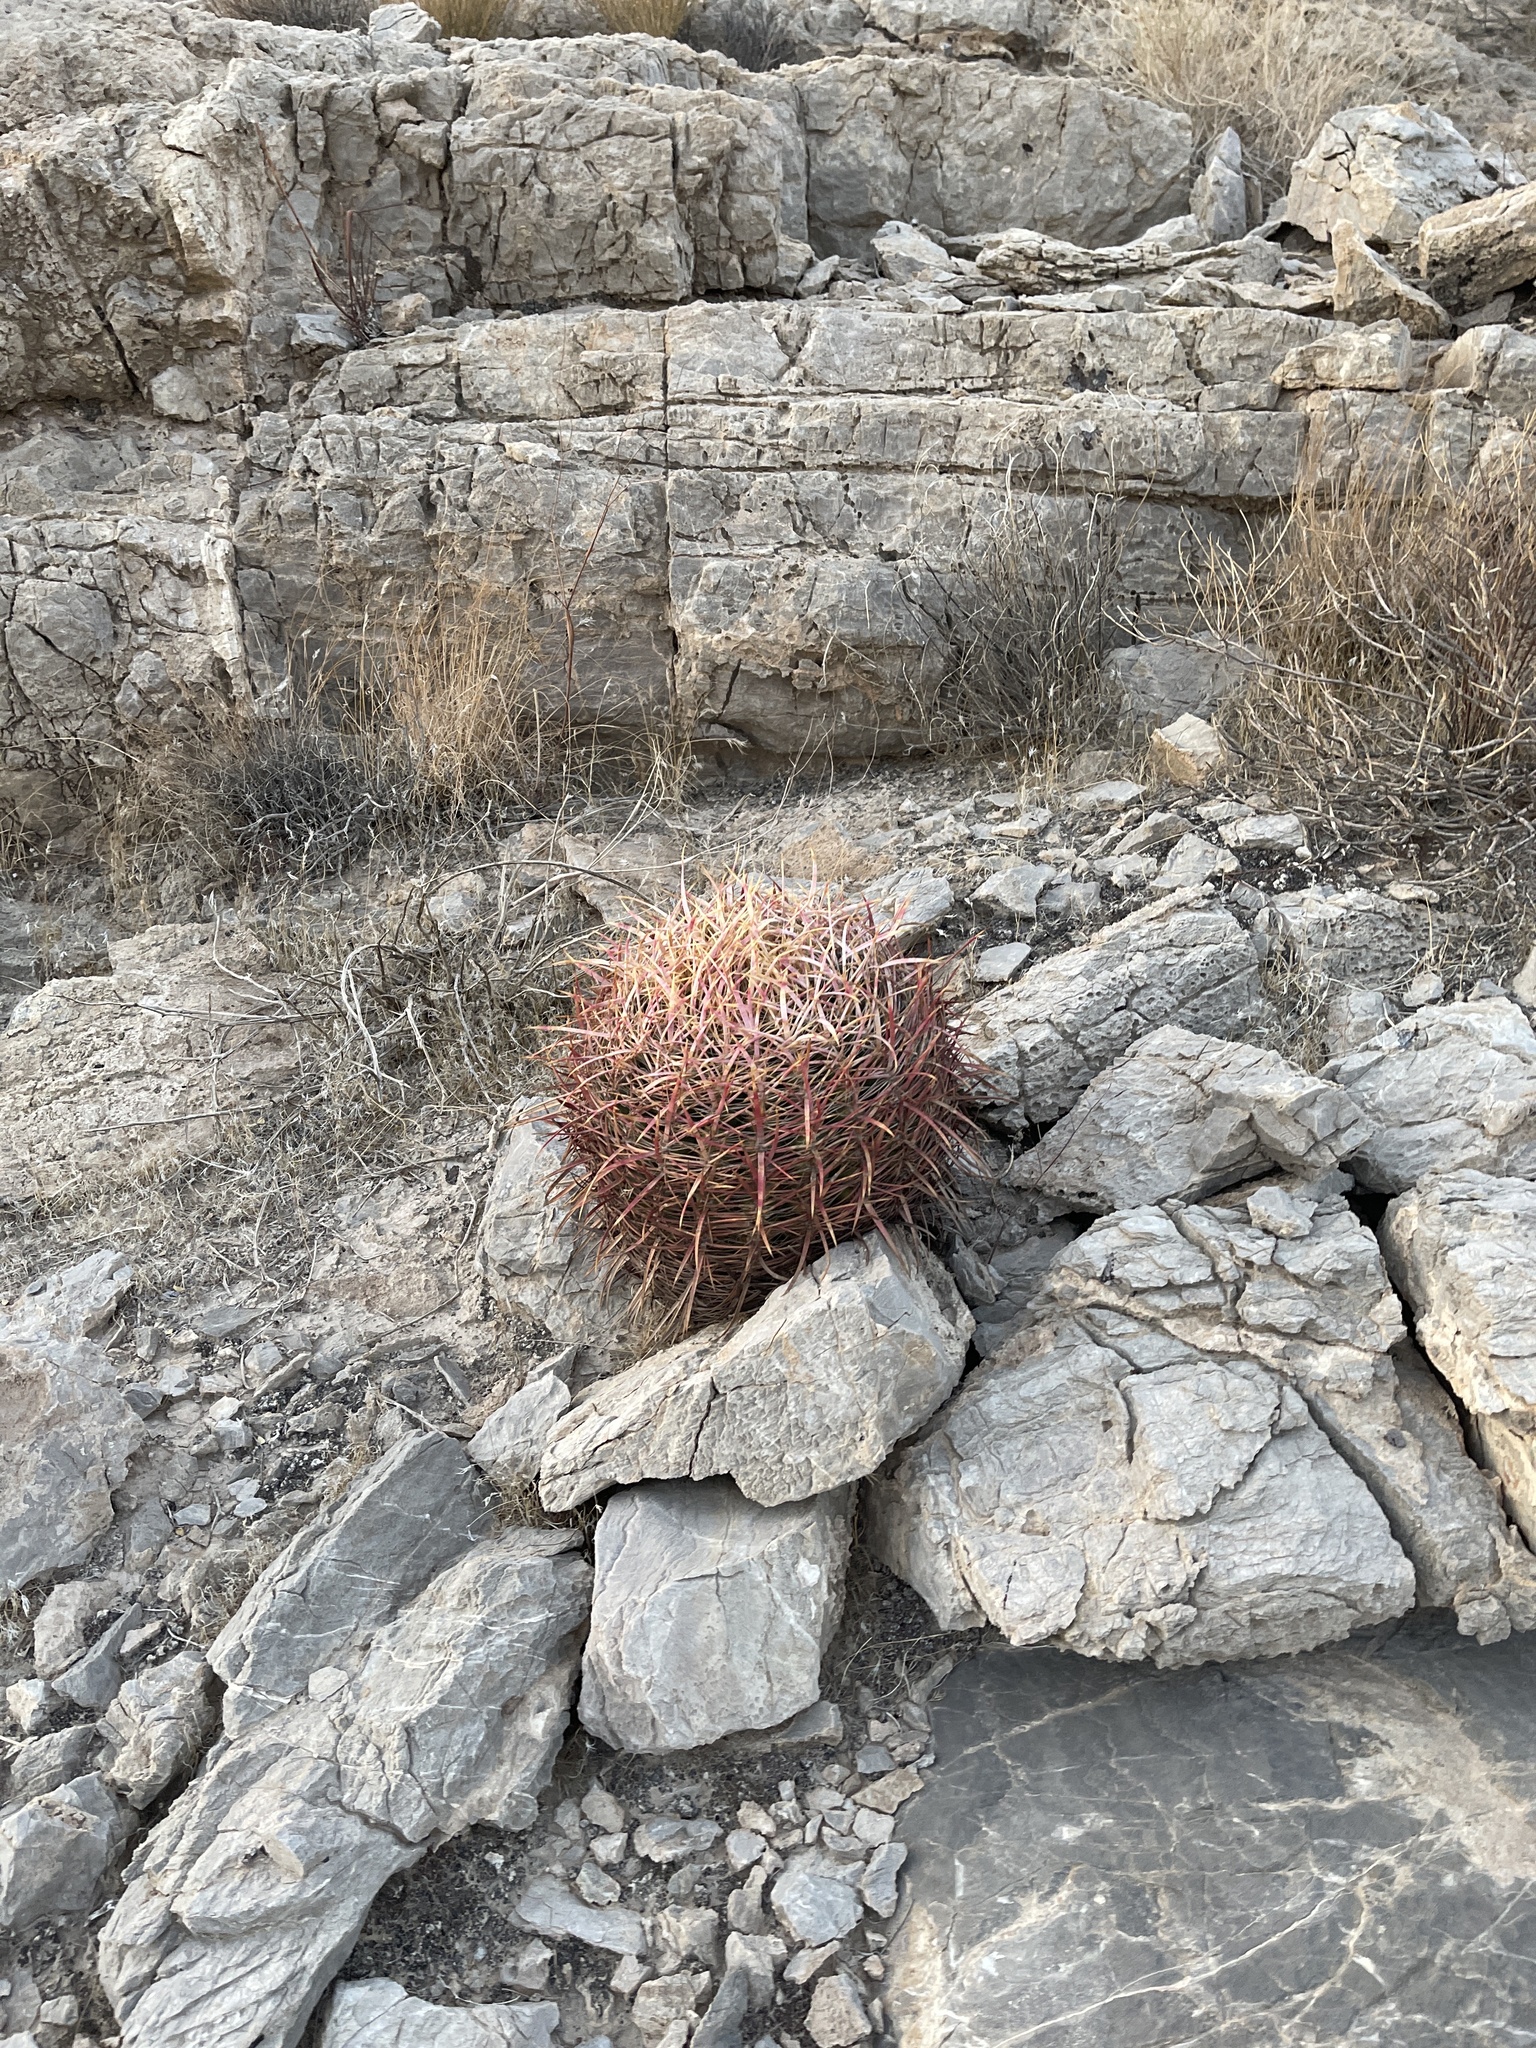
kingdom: Plantae
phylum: Tracheophyta
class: Magnoliopsida
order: Caryophyllales
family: Cactaceae
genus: Ferocactus
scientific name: Ferocactus cylindraceus
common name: California barrel cactus
